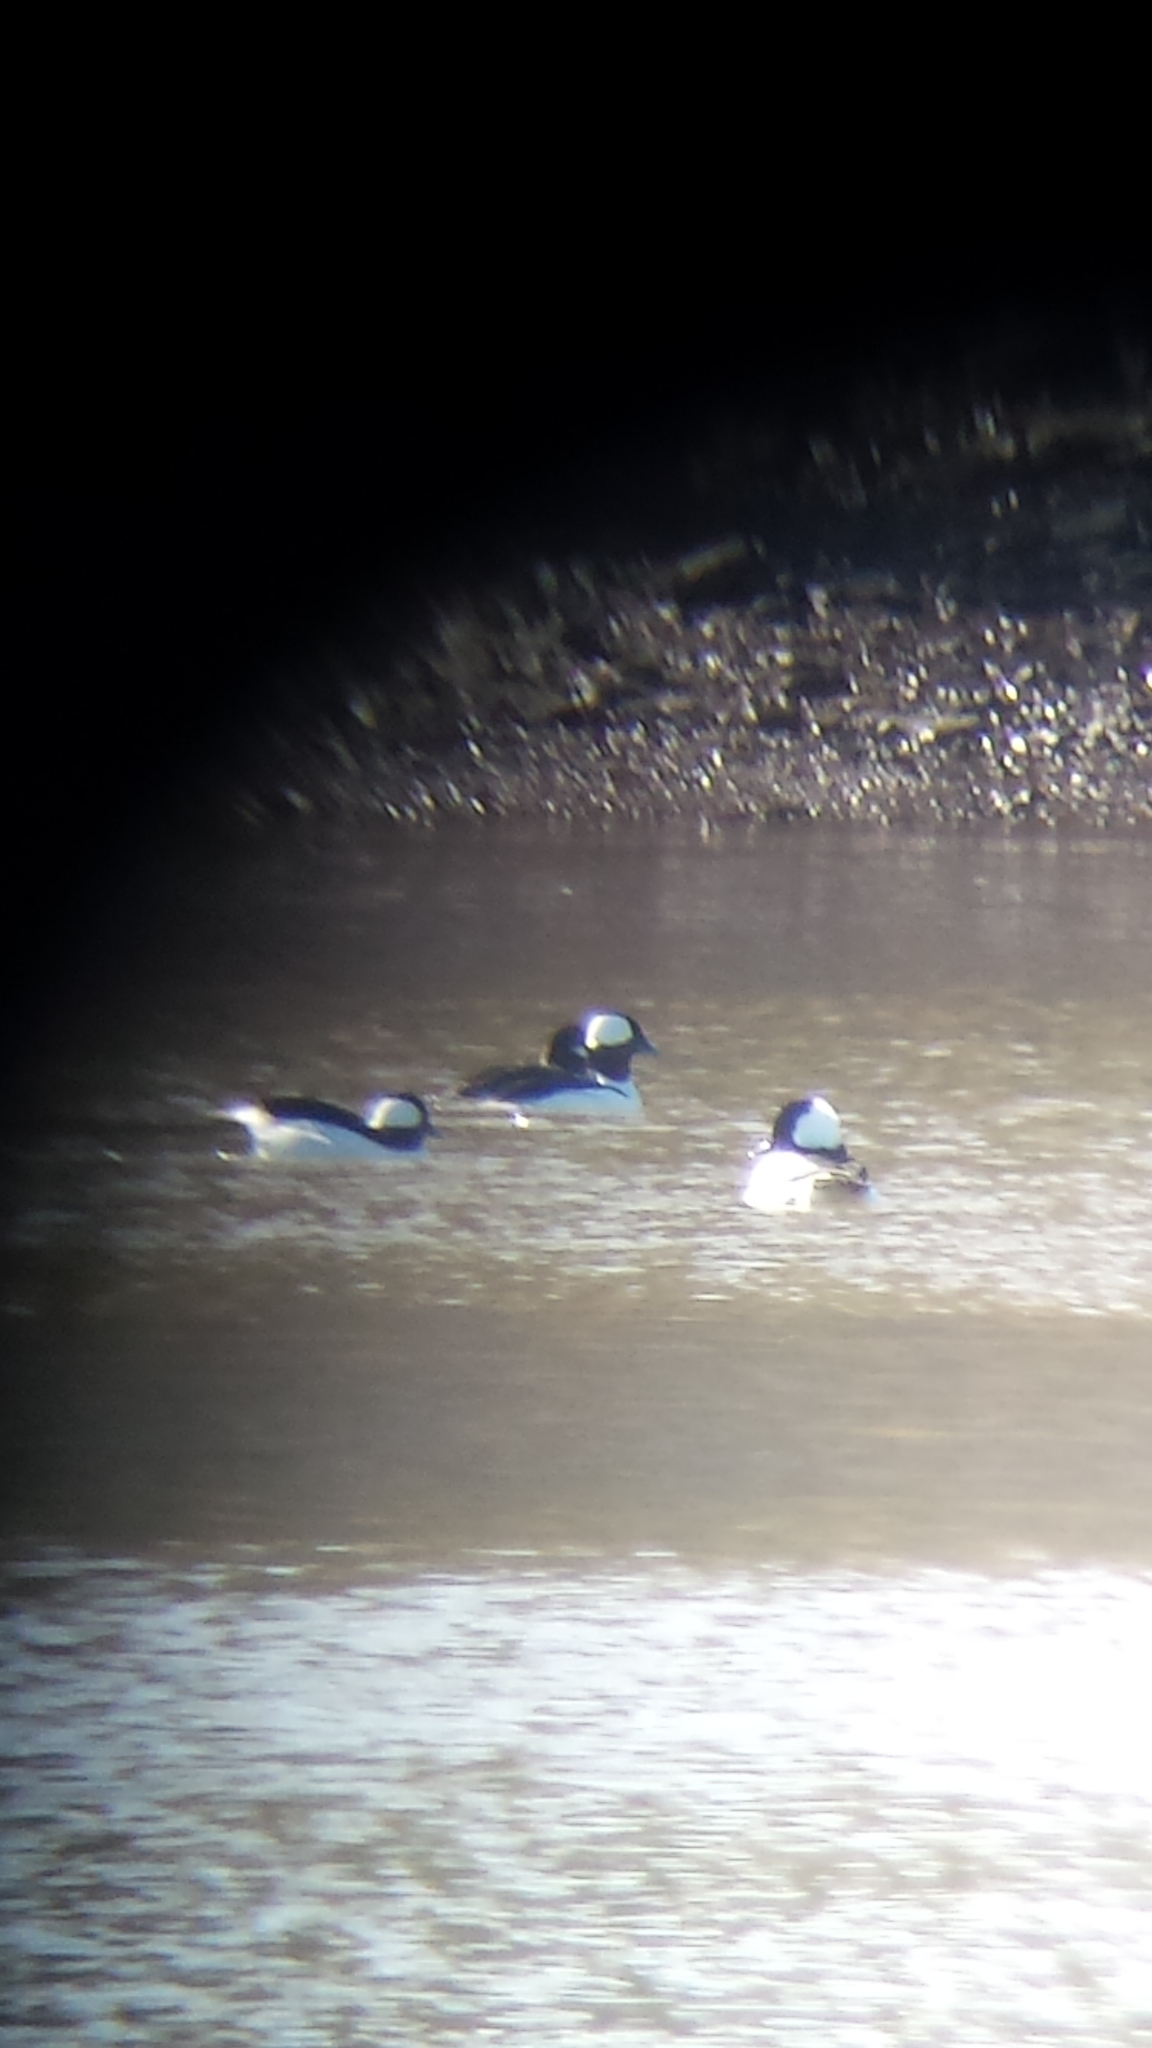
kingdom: Animalia
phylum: Chordata
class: Aves
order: Anseriformes
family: Anatidae
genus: Bucephala
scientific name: Bucephala albeola
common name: Bufflehead
